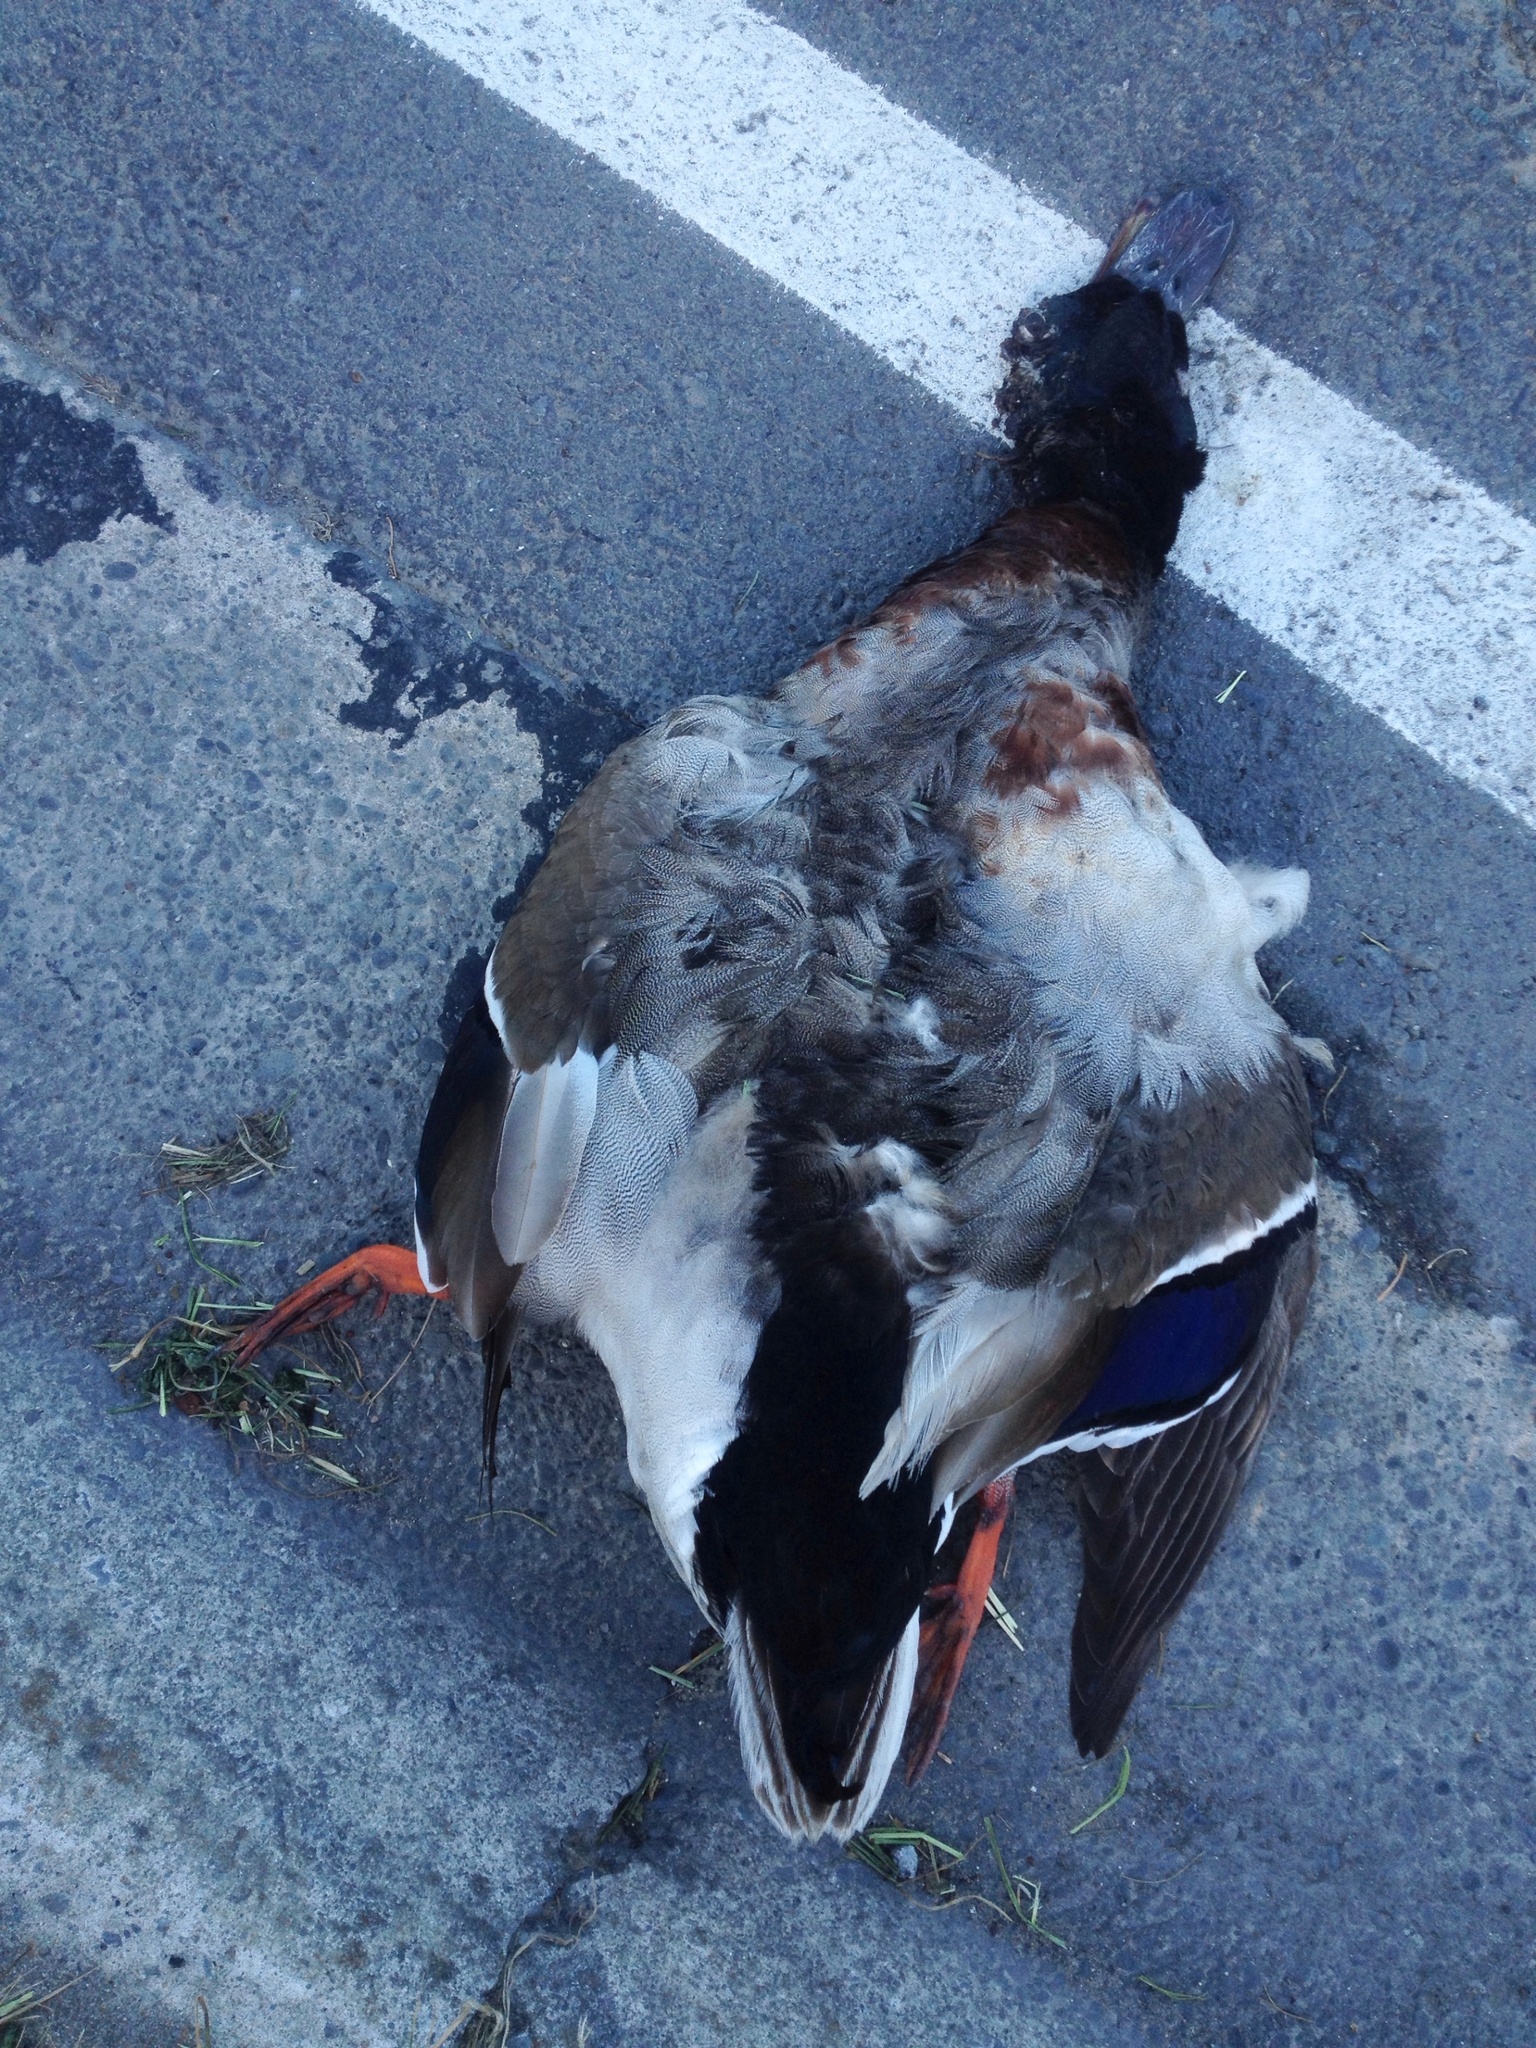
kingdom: Animalia
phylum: Chordata
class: Aves
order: Anseriformes
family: Anatidae
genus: Anas
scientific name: Anas platyrhynchos
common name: Mallard
